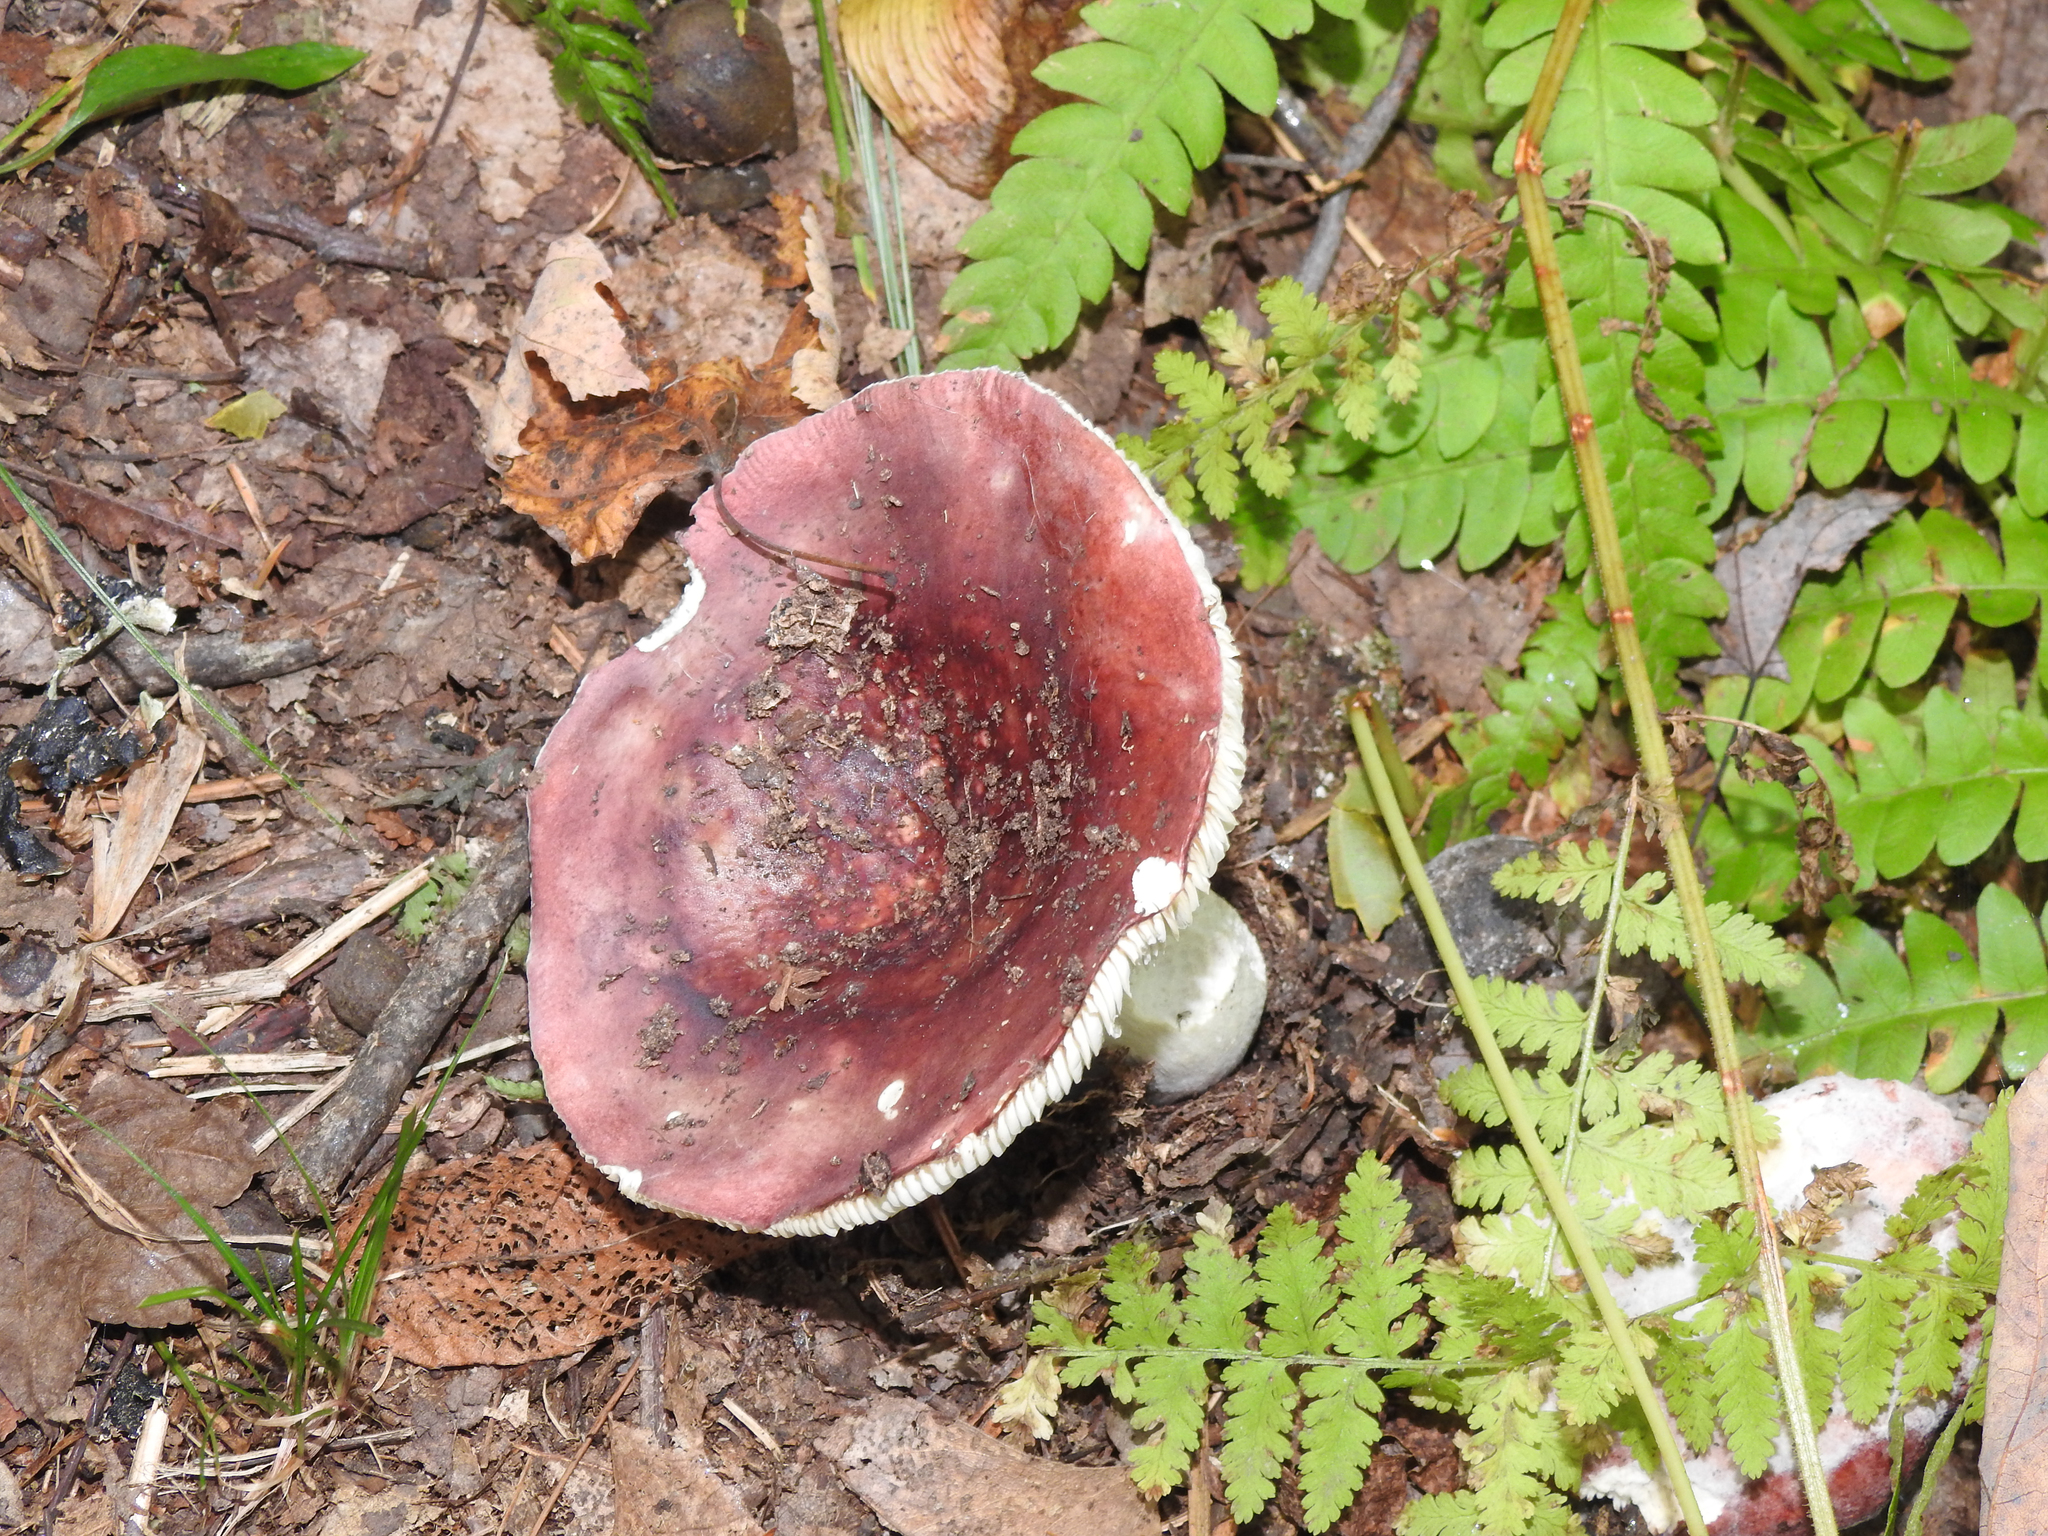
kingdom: Fungi
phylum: Basidiomycota
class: Agaricomycetes
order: Russulales
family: Russulaceae
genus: Russula
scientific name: Russula
